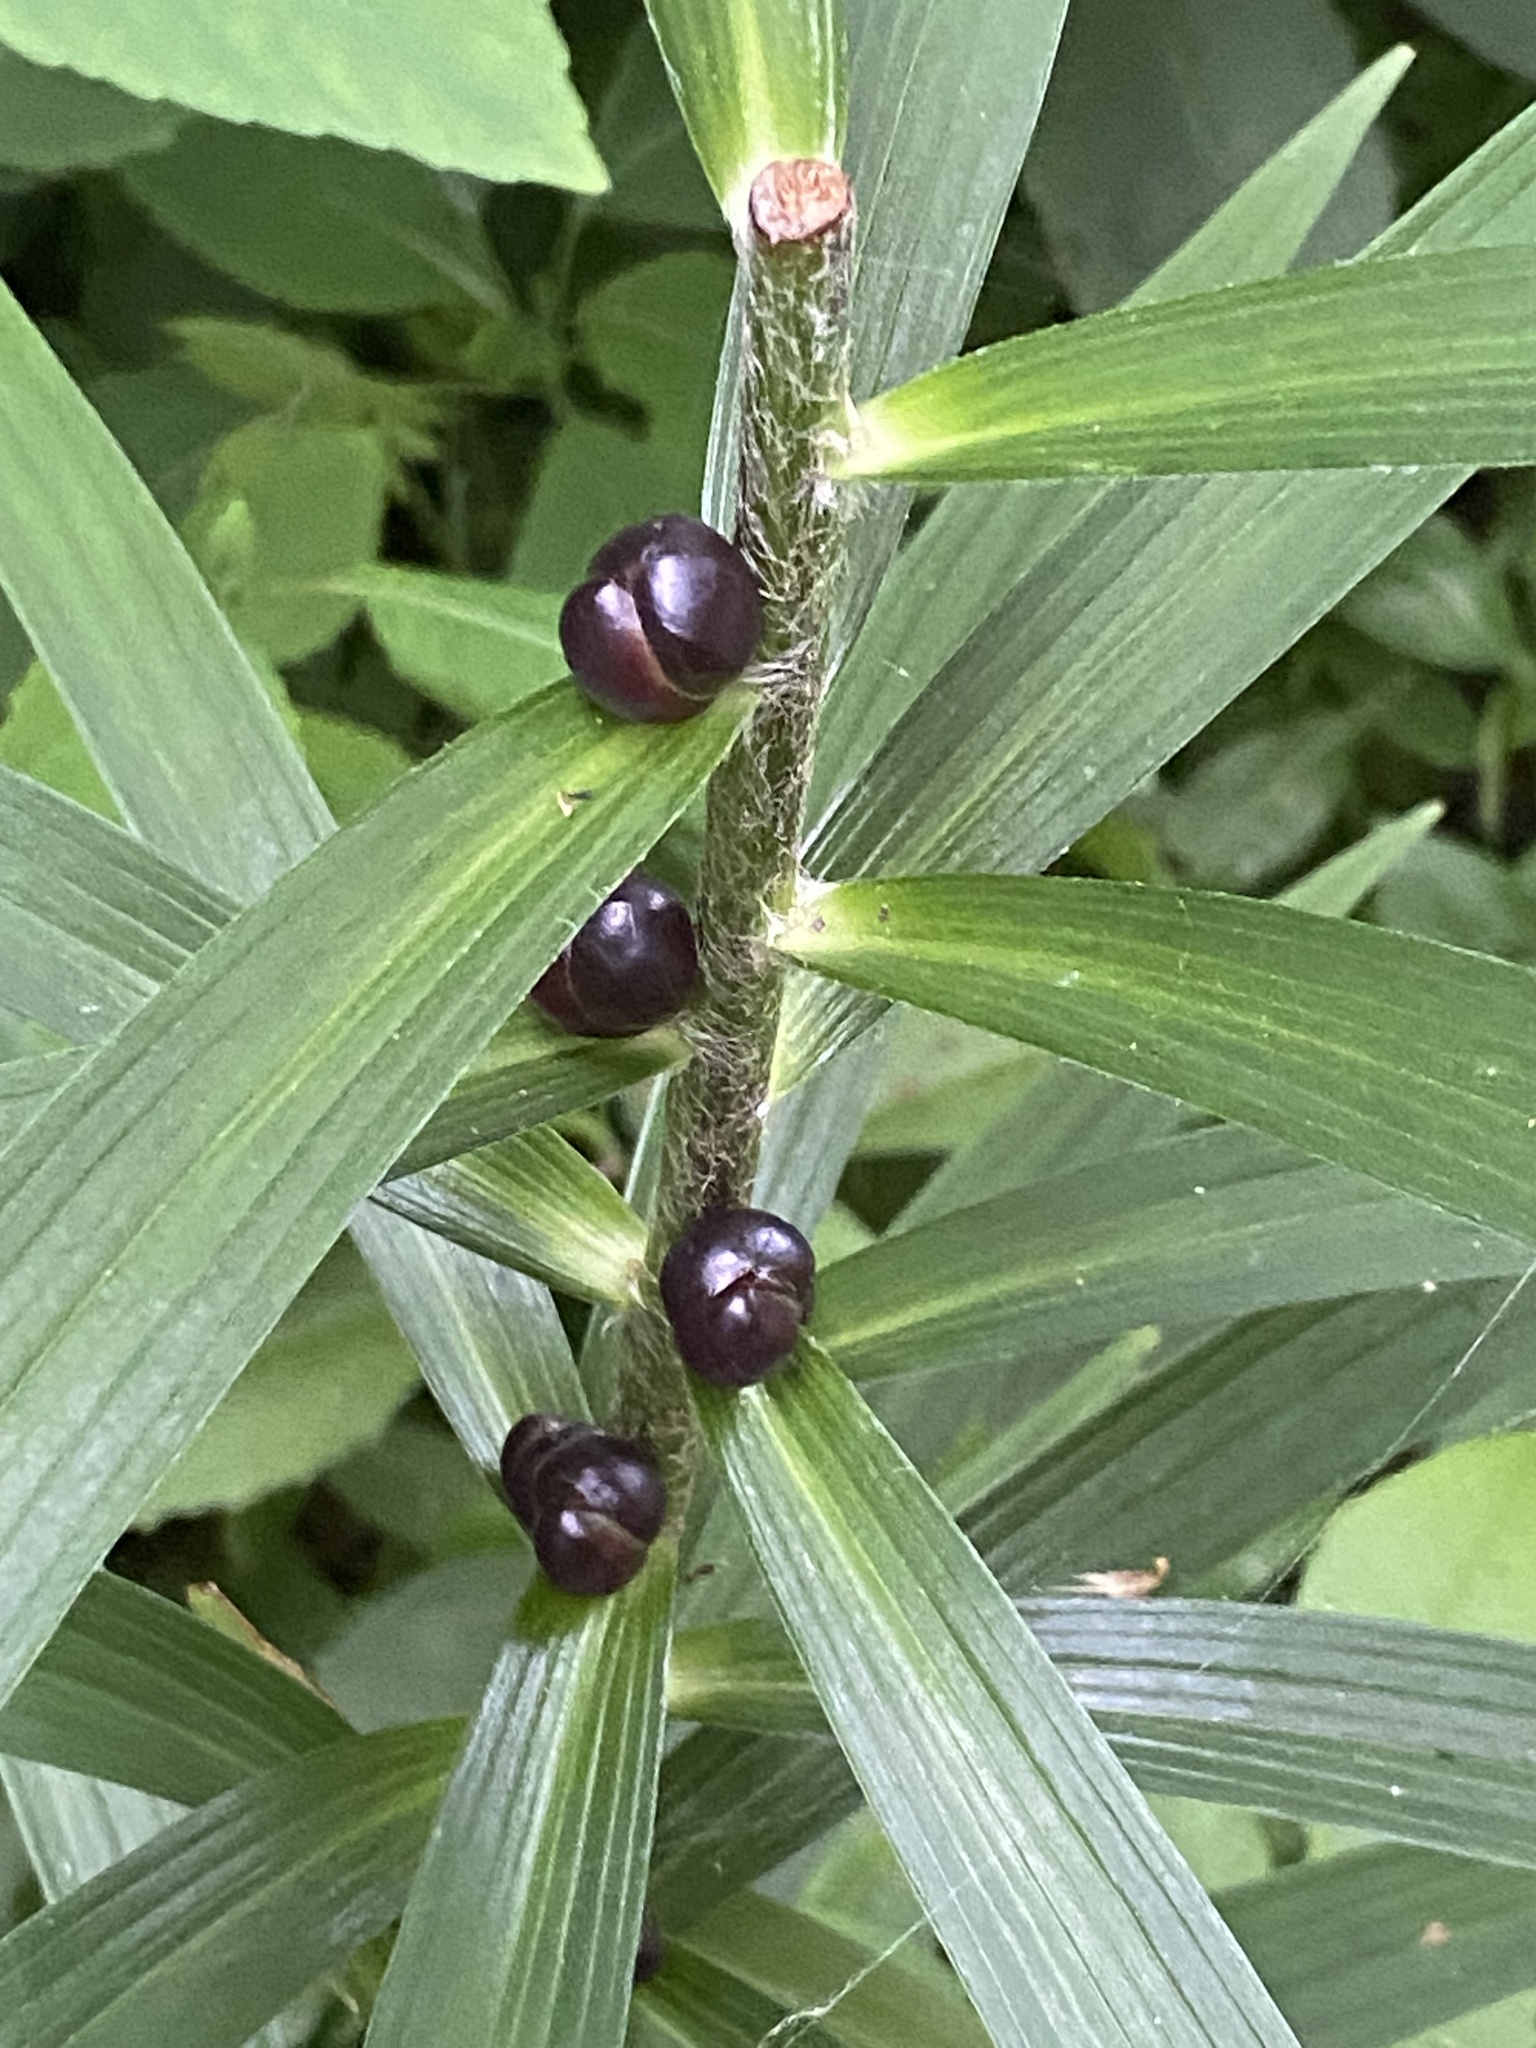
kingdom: Plantae
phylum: Tracheophyta
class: Liliopsida
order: Liliales
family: Liliaceae
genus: Lilium
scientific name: Lilium lancifolium
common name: Tiger lily
